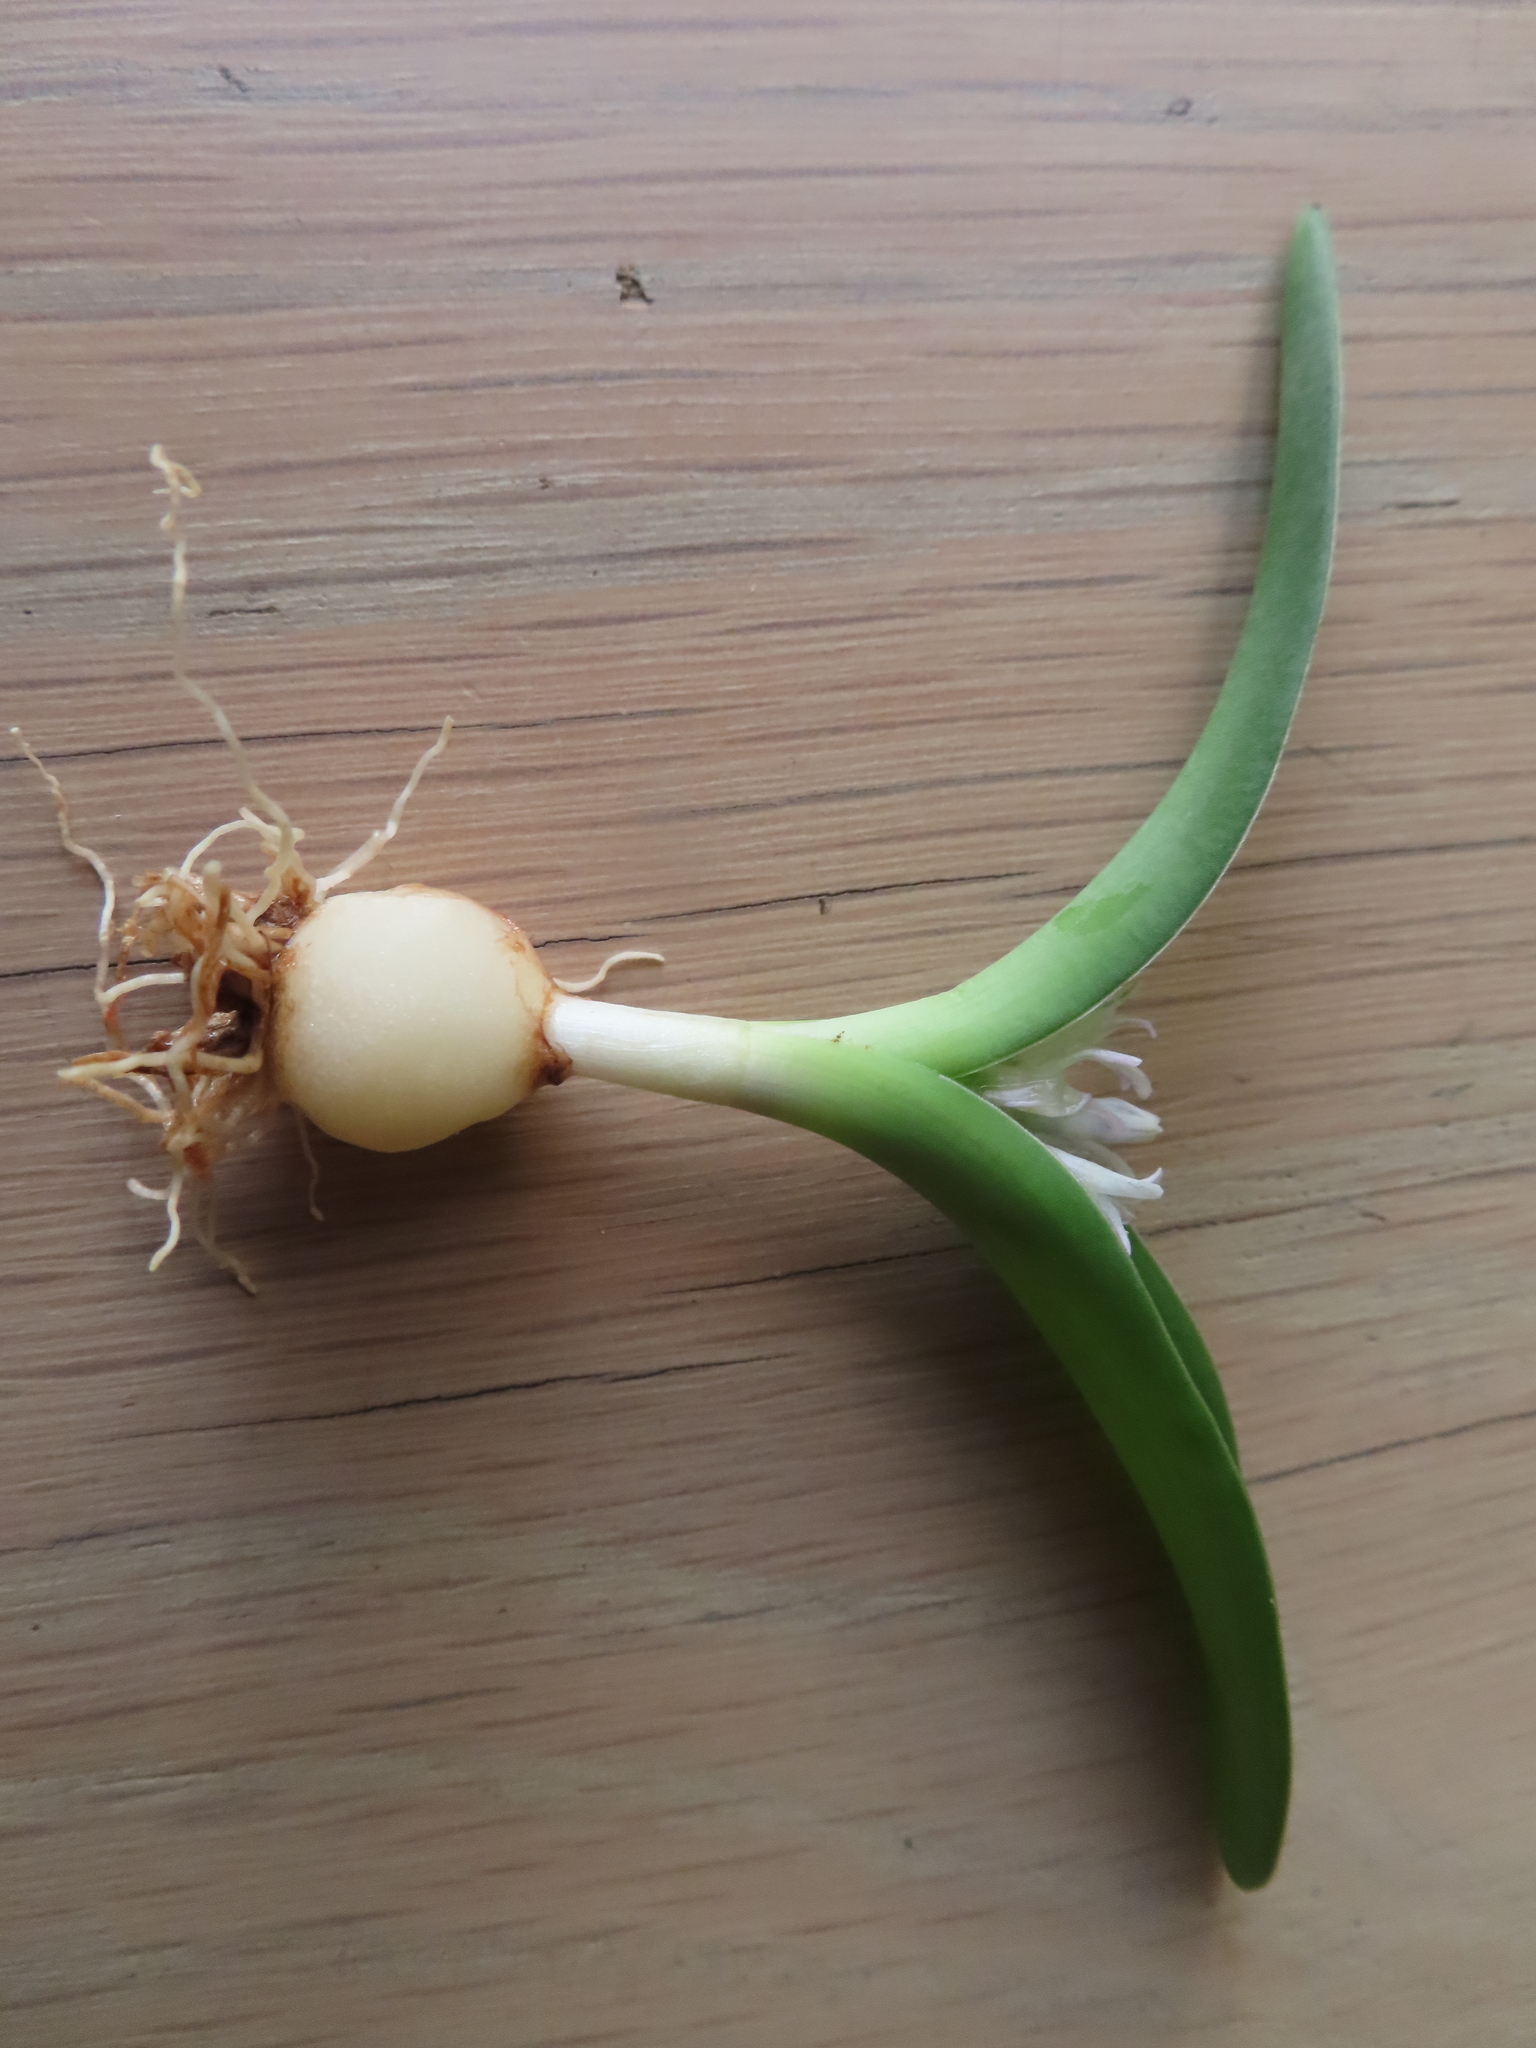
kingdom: Plantae
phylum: Tracheophyta
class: Liliopsida
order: Asparagales
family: Asparagaceae
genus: Lachenalia
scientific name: Lachenalia ensifolia
